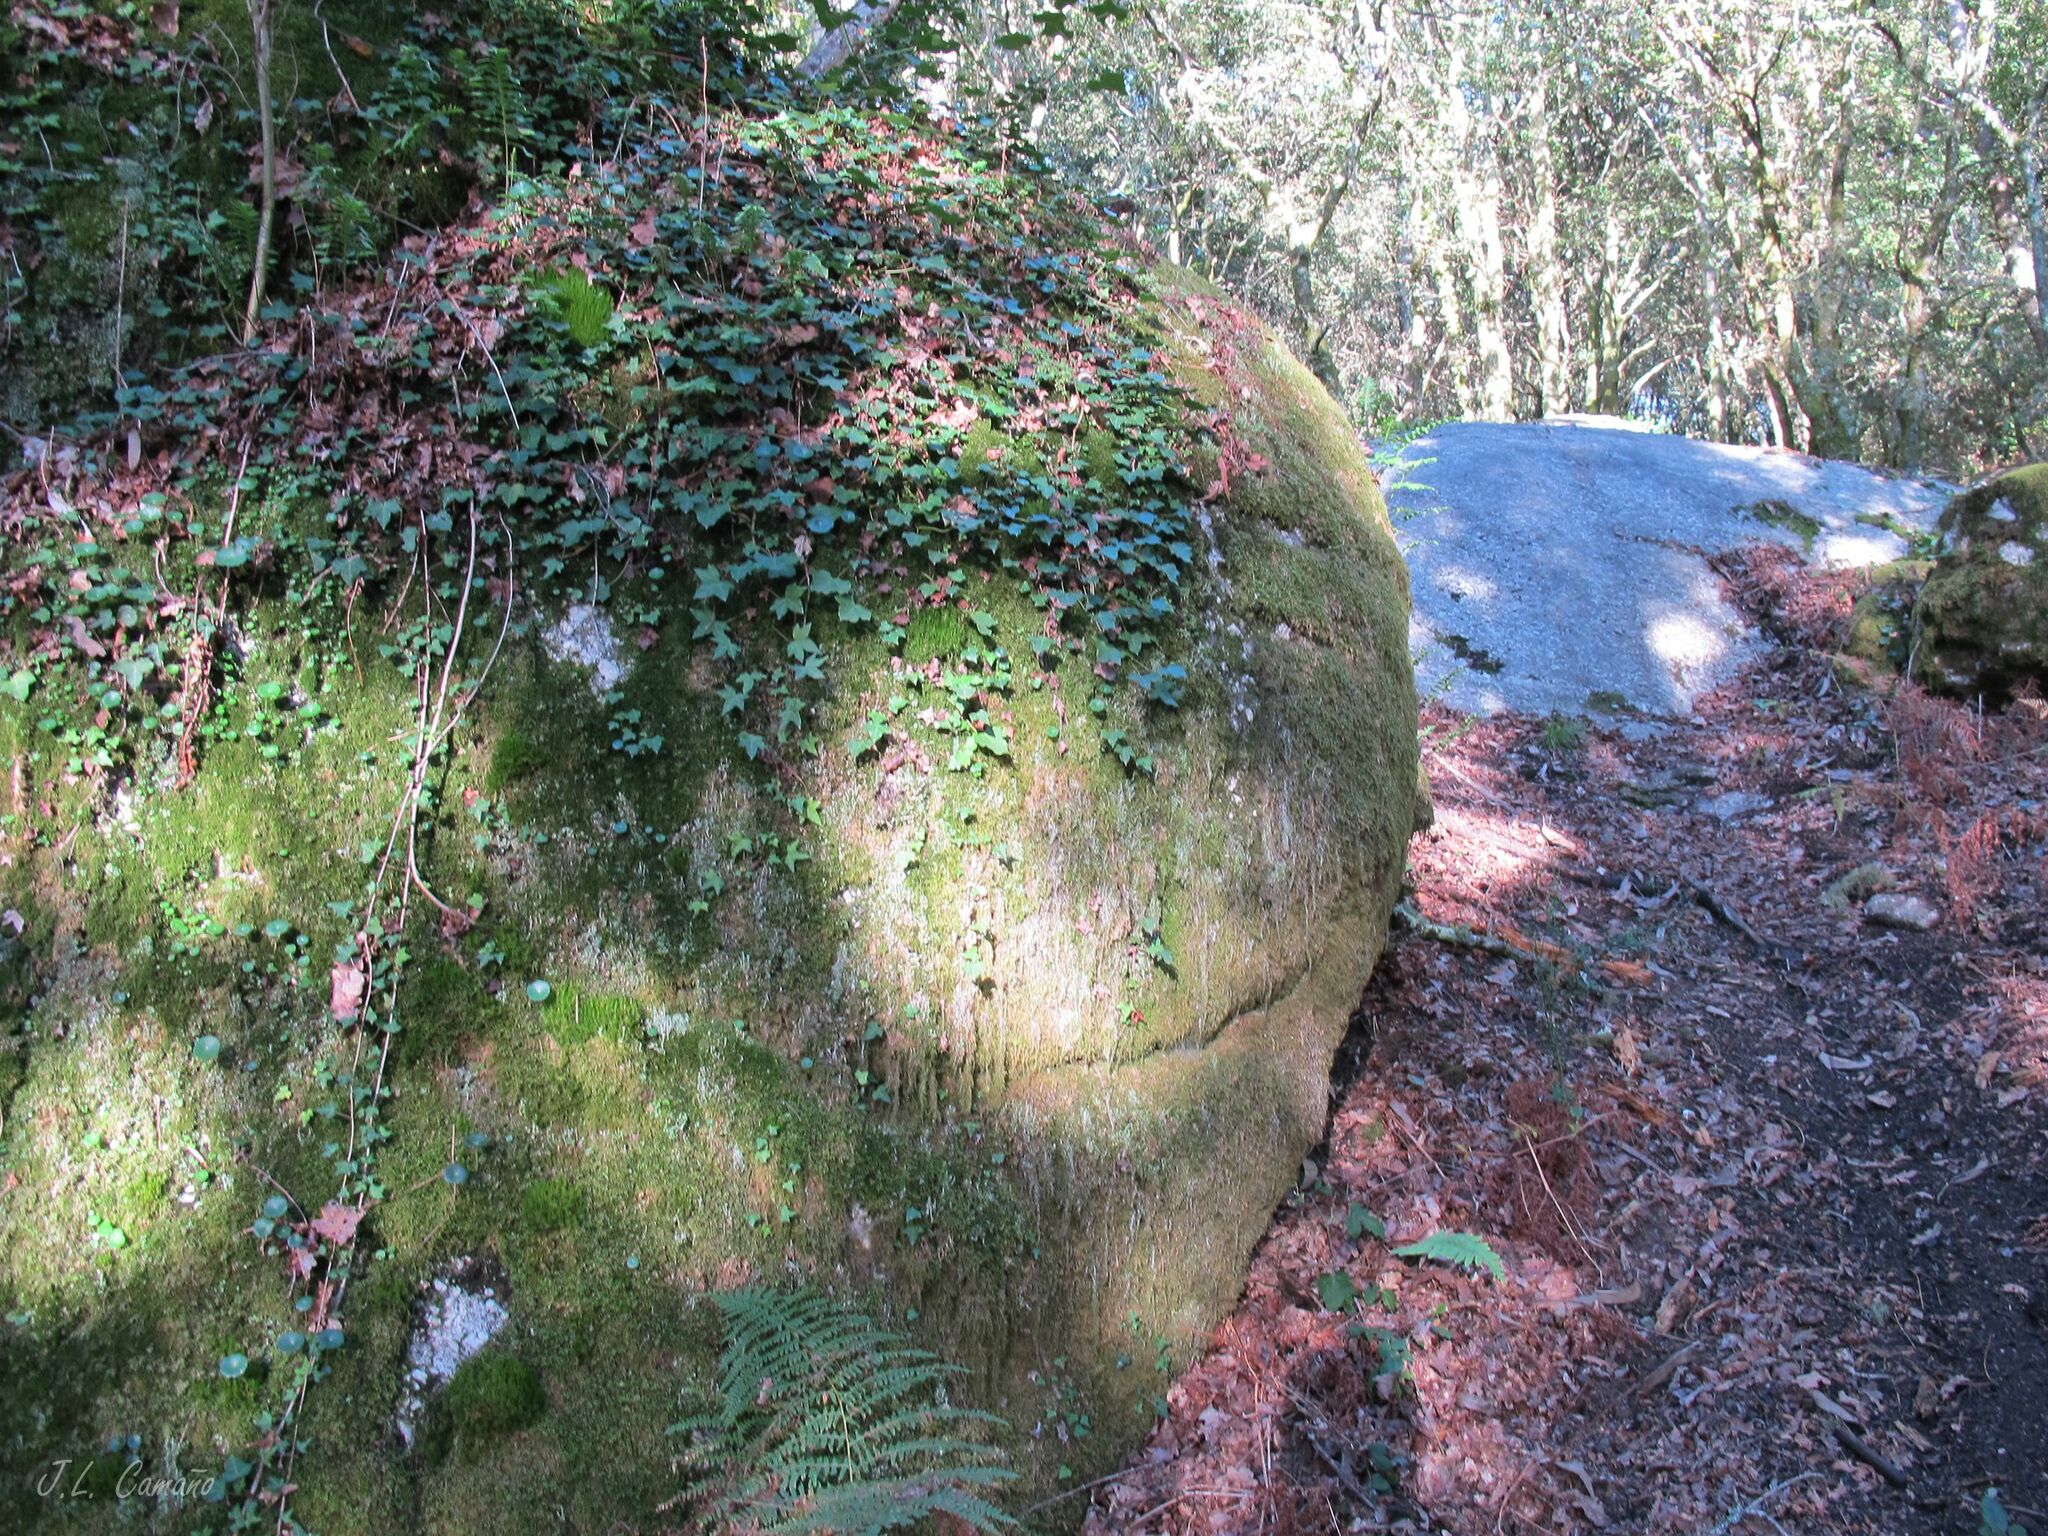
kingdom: Plantae
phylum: Bryophyta
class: Bryopsida
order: Dicranales
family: Dicranaceae
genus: Dicranum
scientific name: Dicranum scoparium
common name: Broom fork-moss
